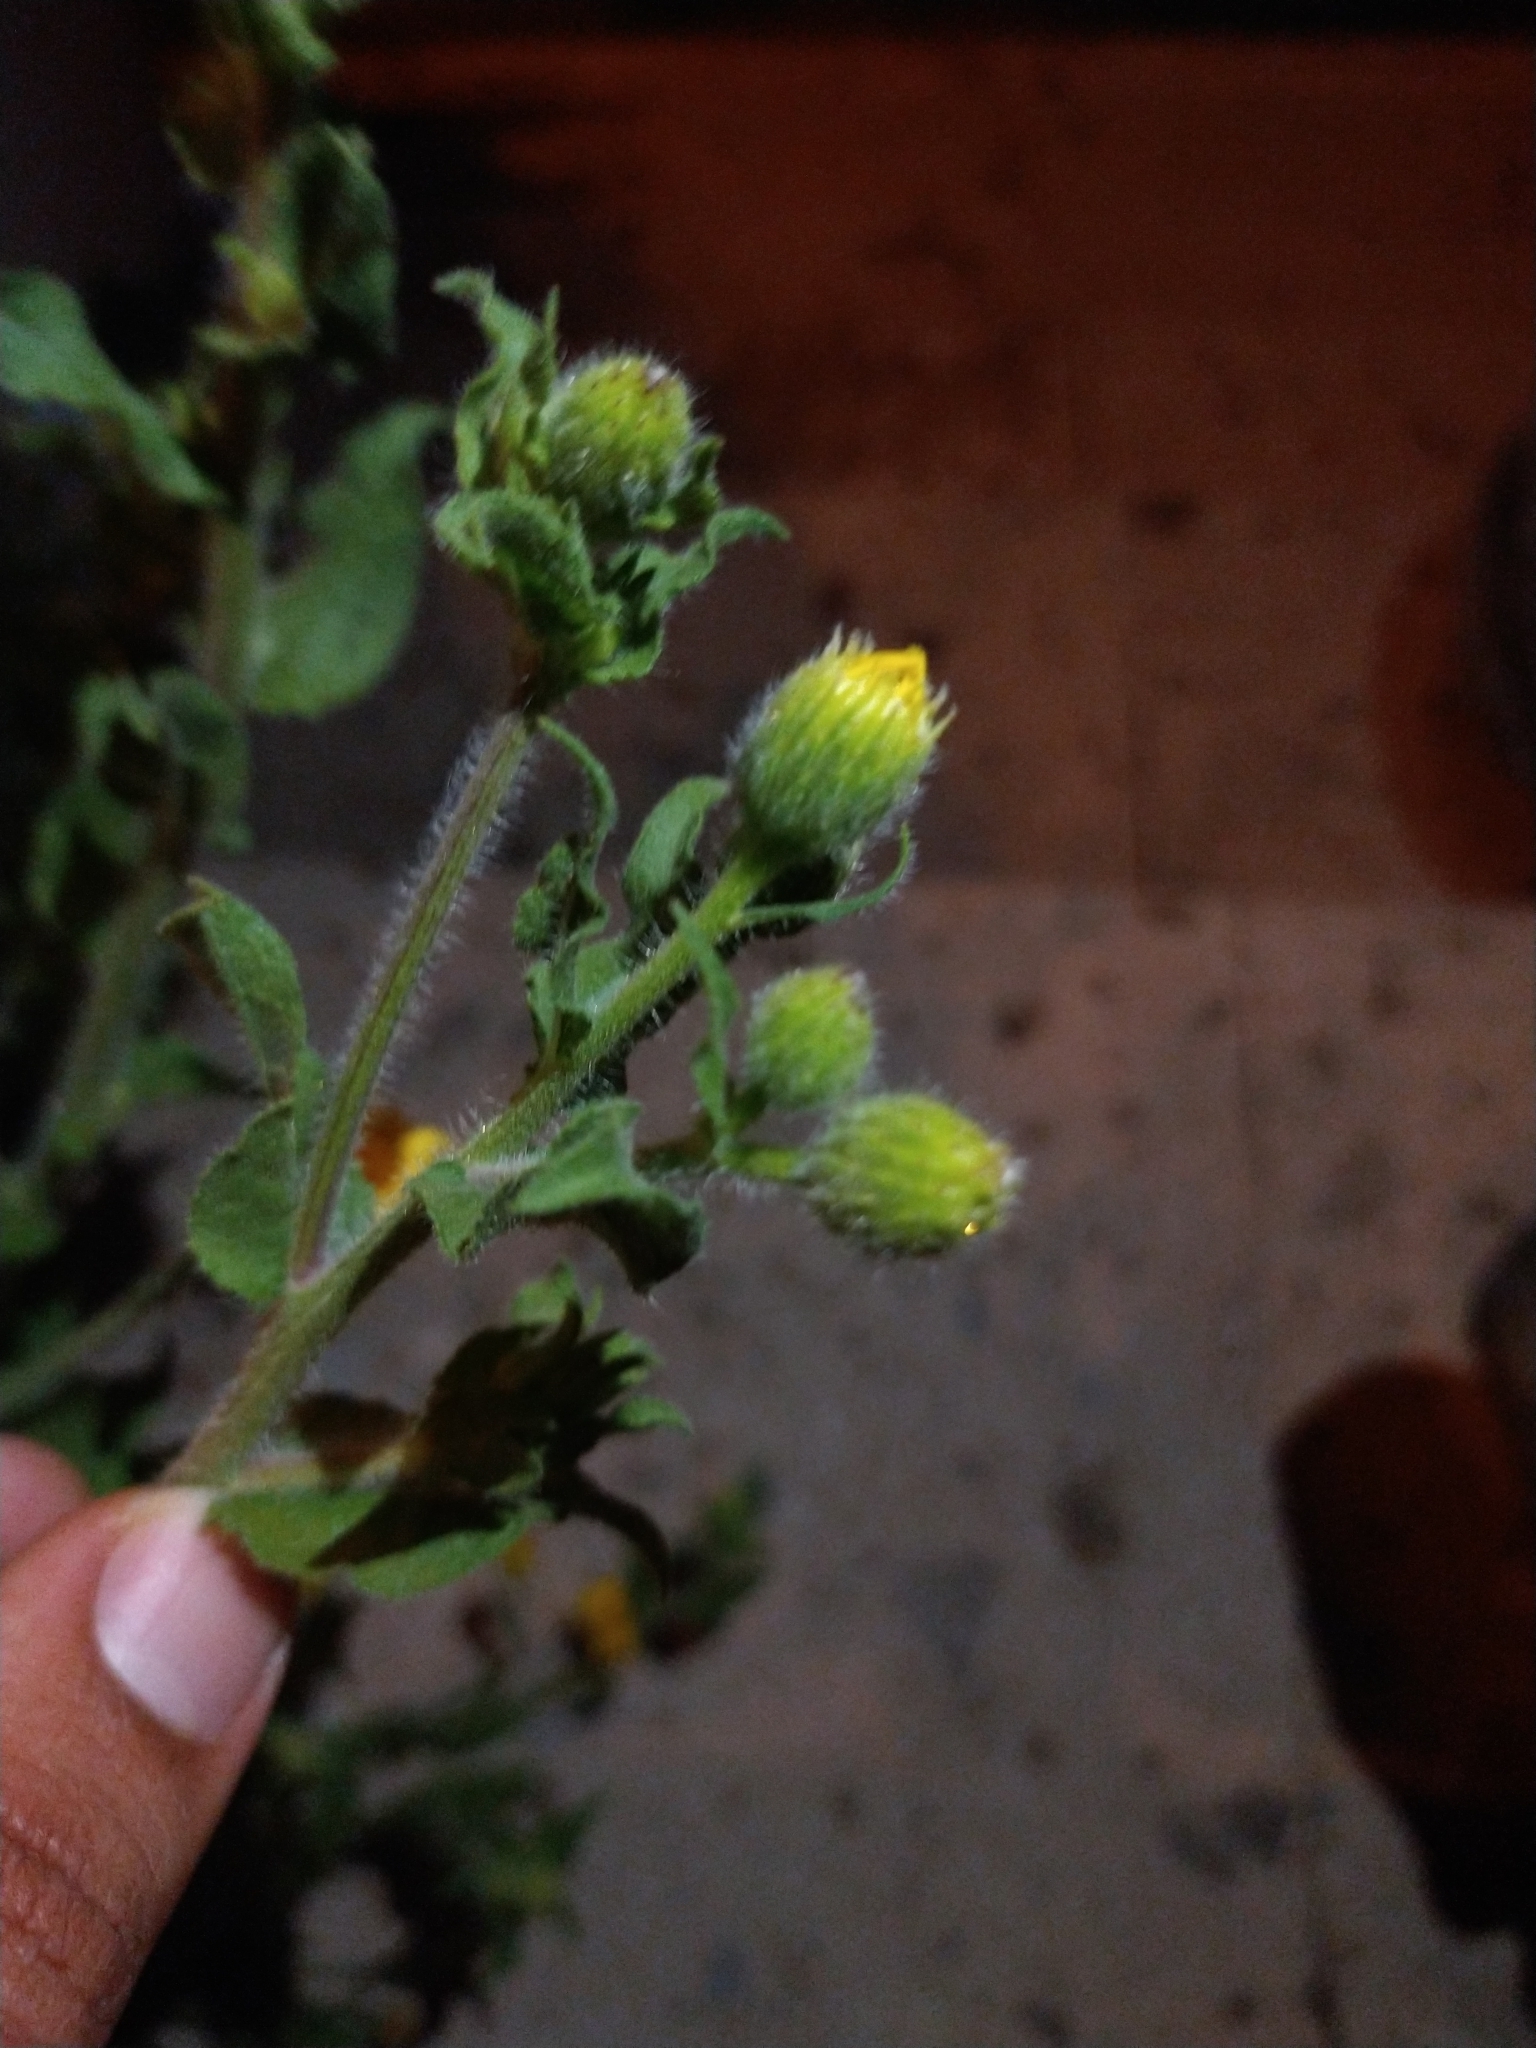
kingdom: Plantae
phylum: Tracheophyta
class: Magnoliopsida
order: Asterales
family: Asteraceae
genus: Heterotheca
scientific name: Heterotheca inuloides
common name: False arnica
